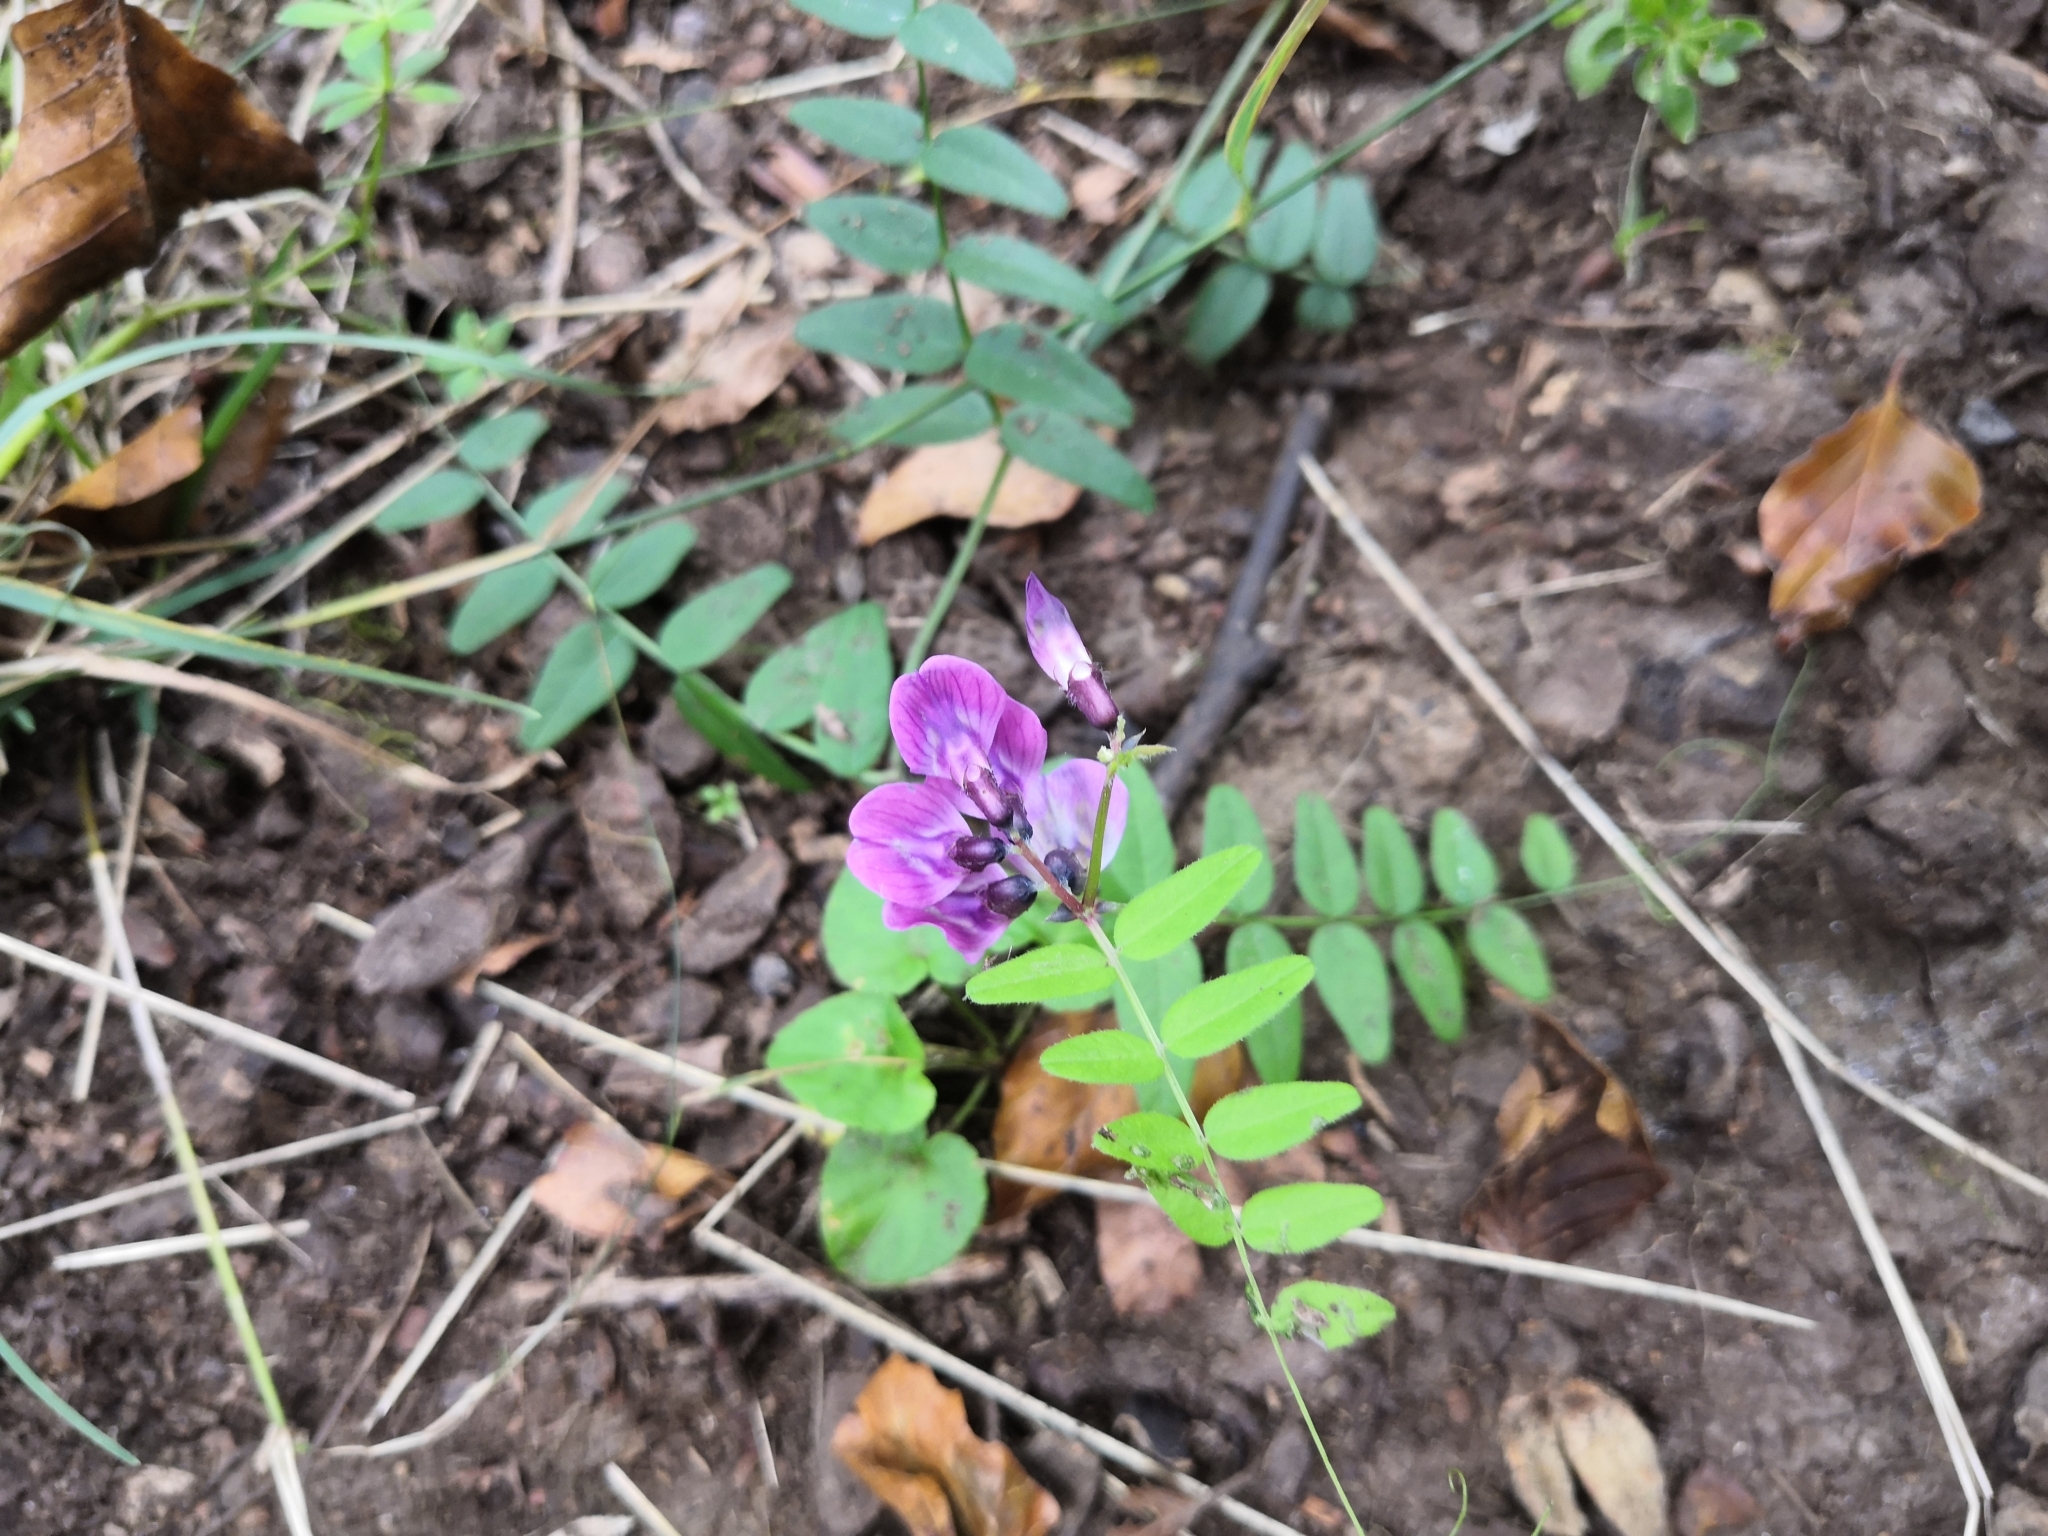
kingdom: Plantae
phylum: Tracheophyta
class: Magnoliopsida
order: Fabales
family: Fabaceae
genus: Vicia
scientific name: Vicia sepium
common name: Bush vetch
